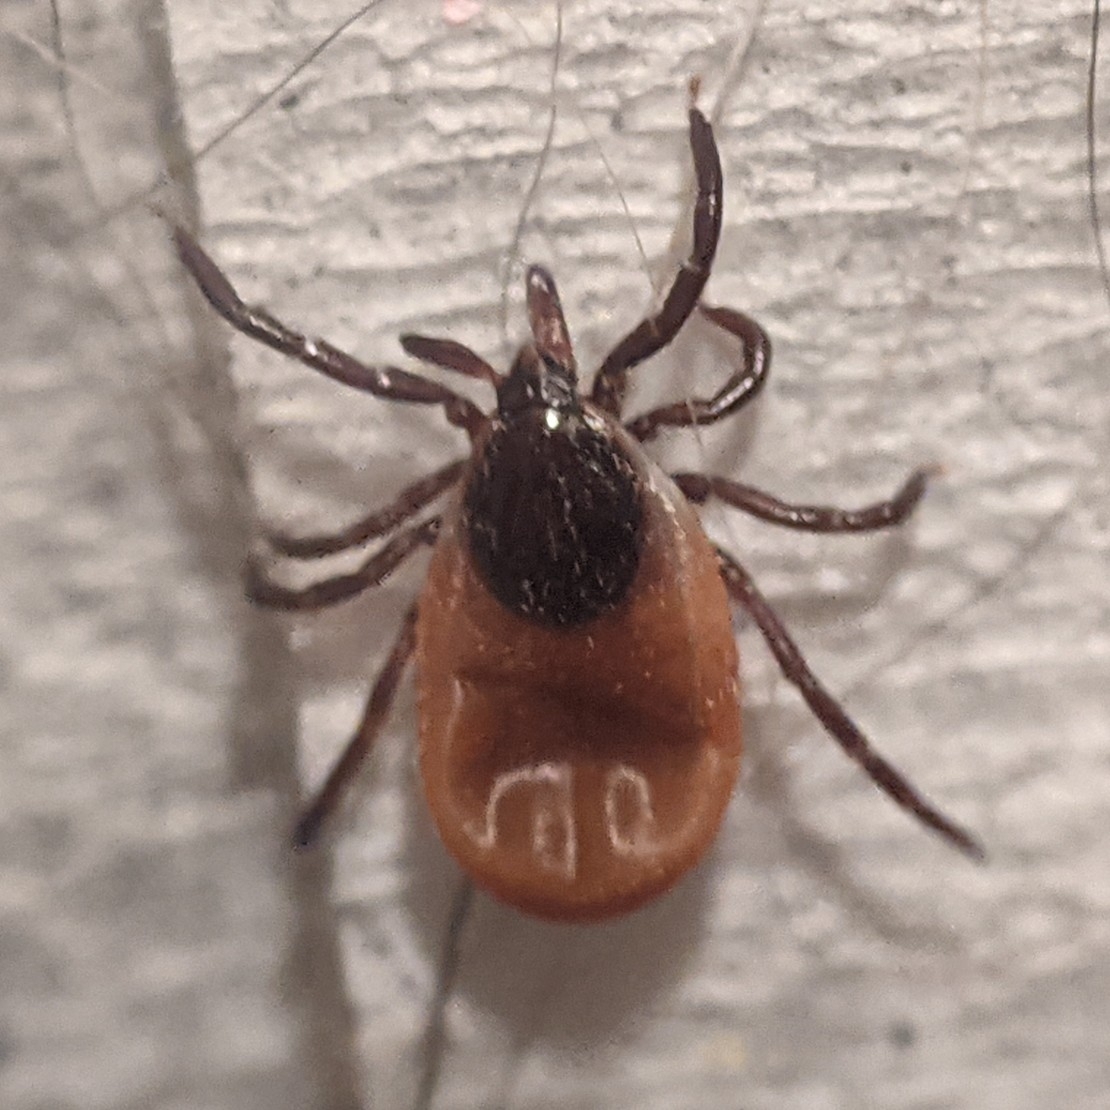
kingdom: Animalia
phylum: Arthropoda
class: Arachnida
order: Ixodida
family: Ixodidae
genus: Ixodes
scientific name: Ixodes scapularis
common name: Black legged tick
